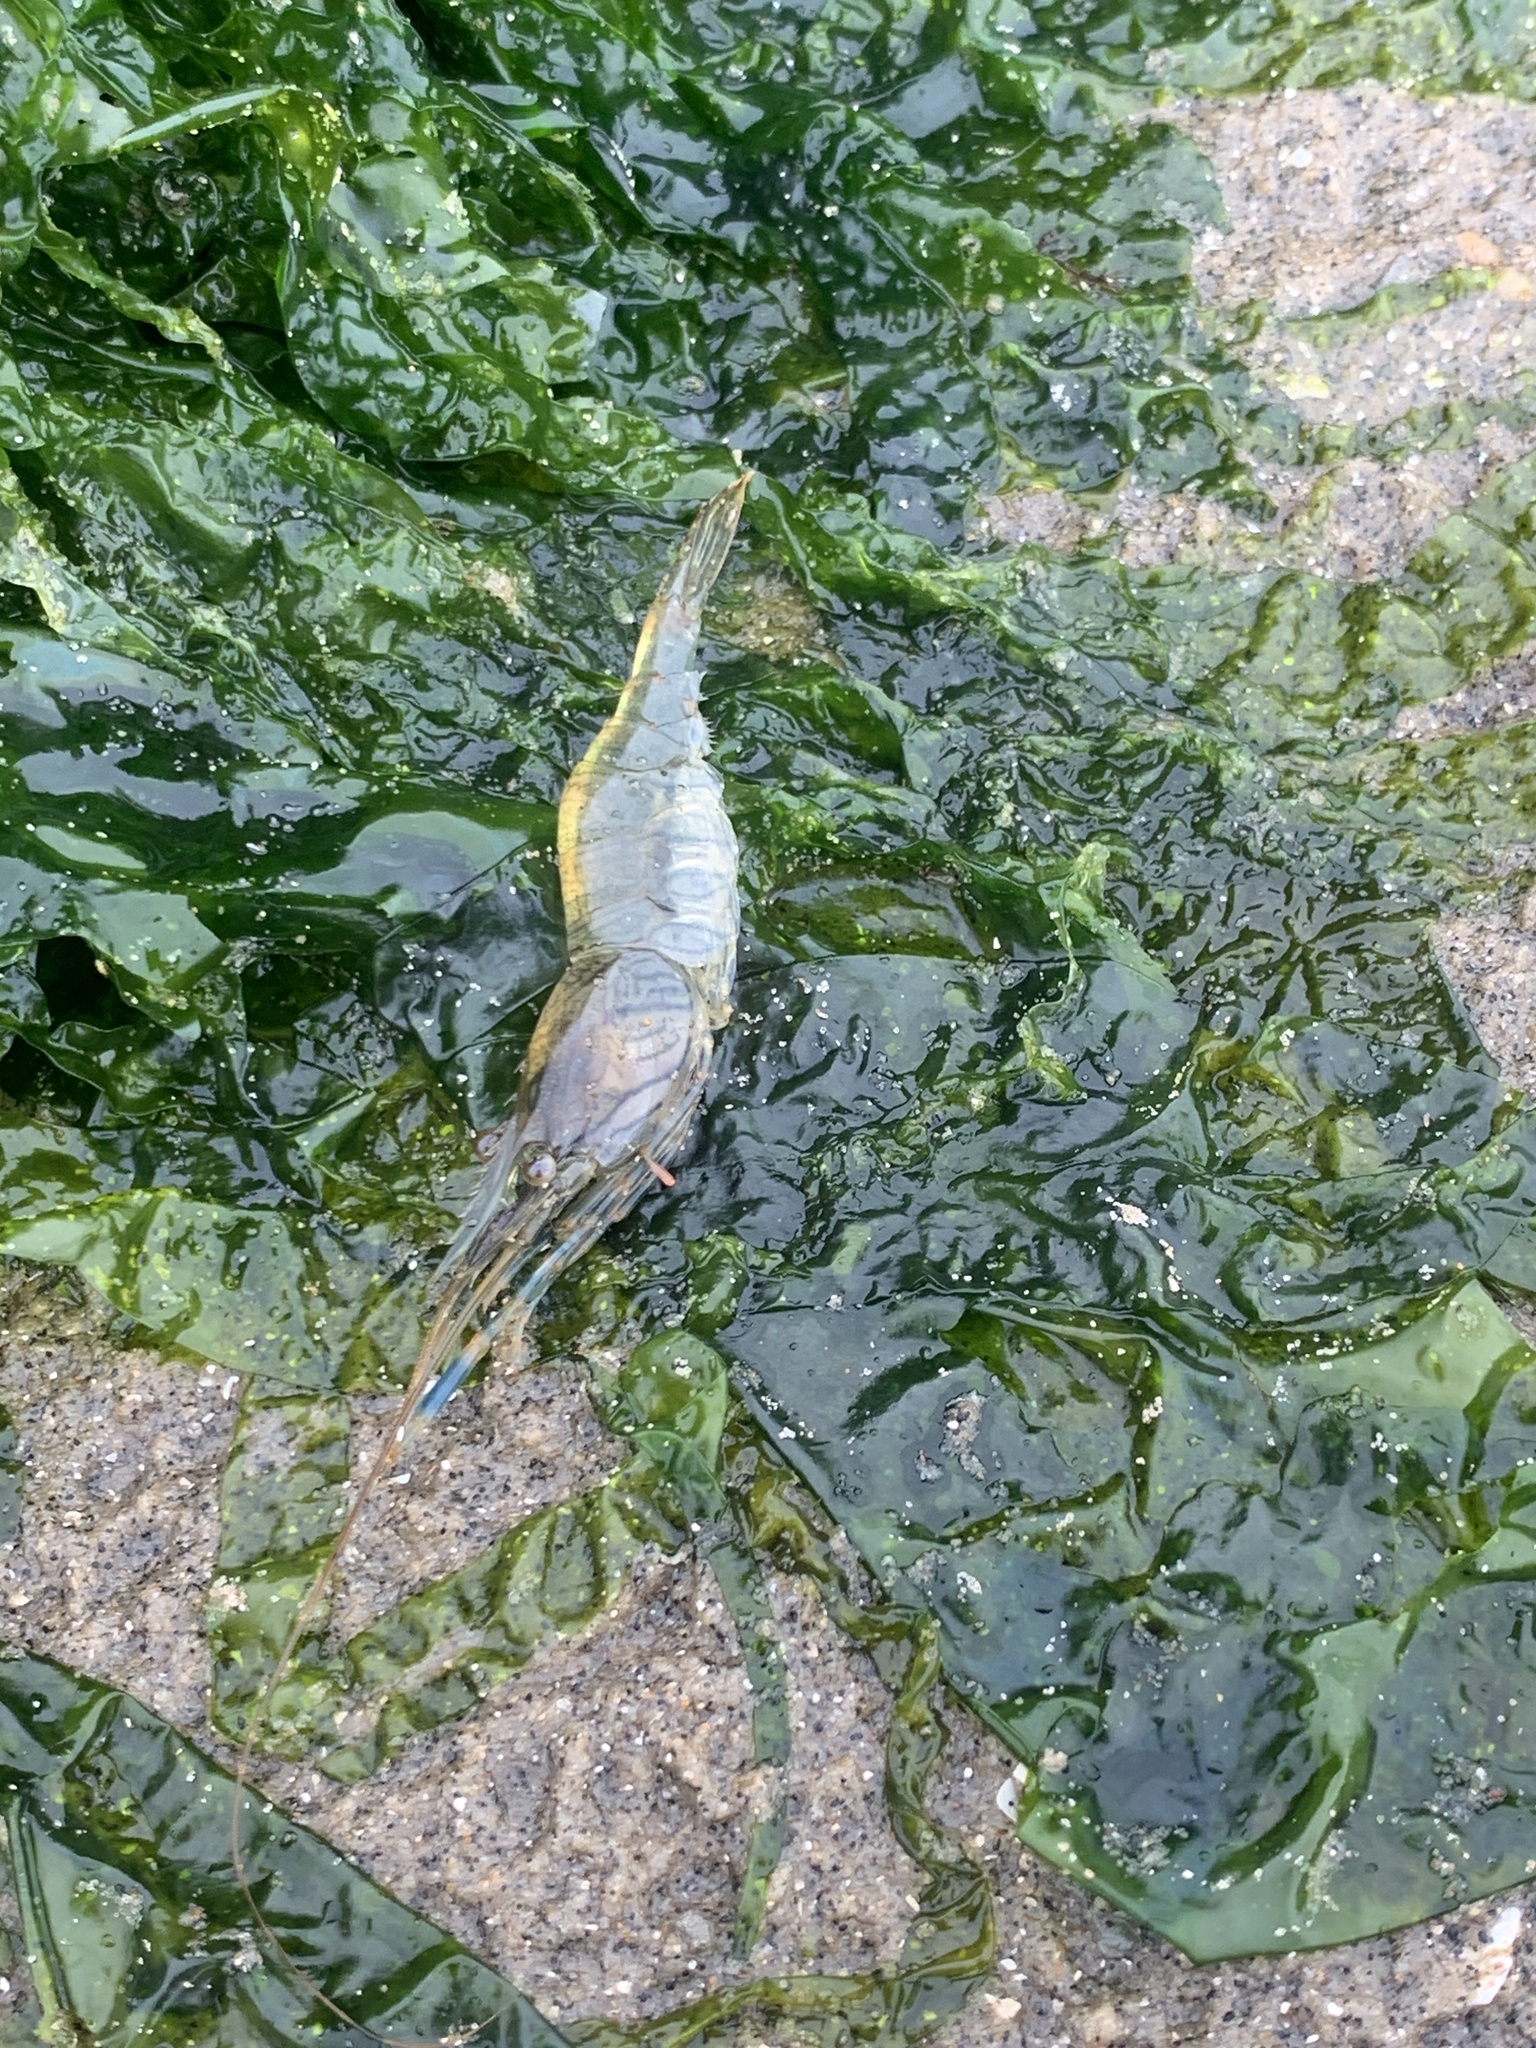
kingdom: Animalia
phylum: Arthropoda
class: Malacostraca
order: Decapoda
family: Palaemonidae
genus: Palaemon
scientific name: Palaemon elegans
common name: Grass prawm
